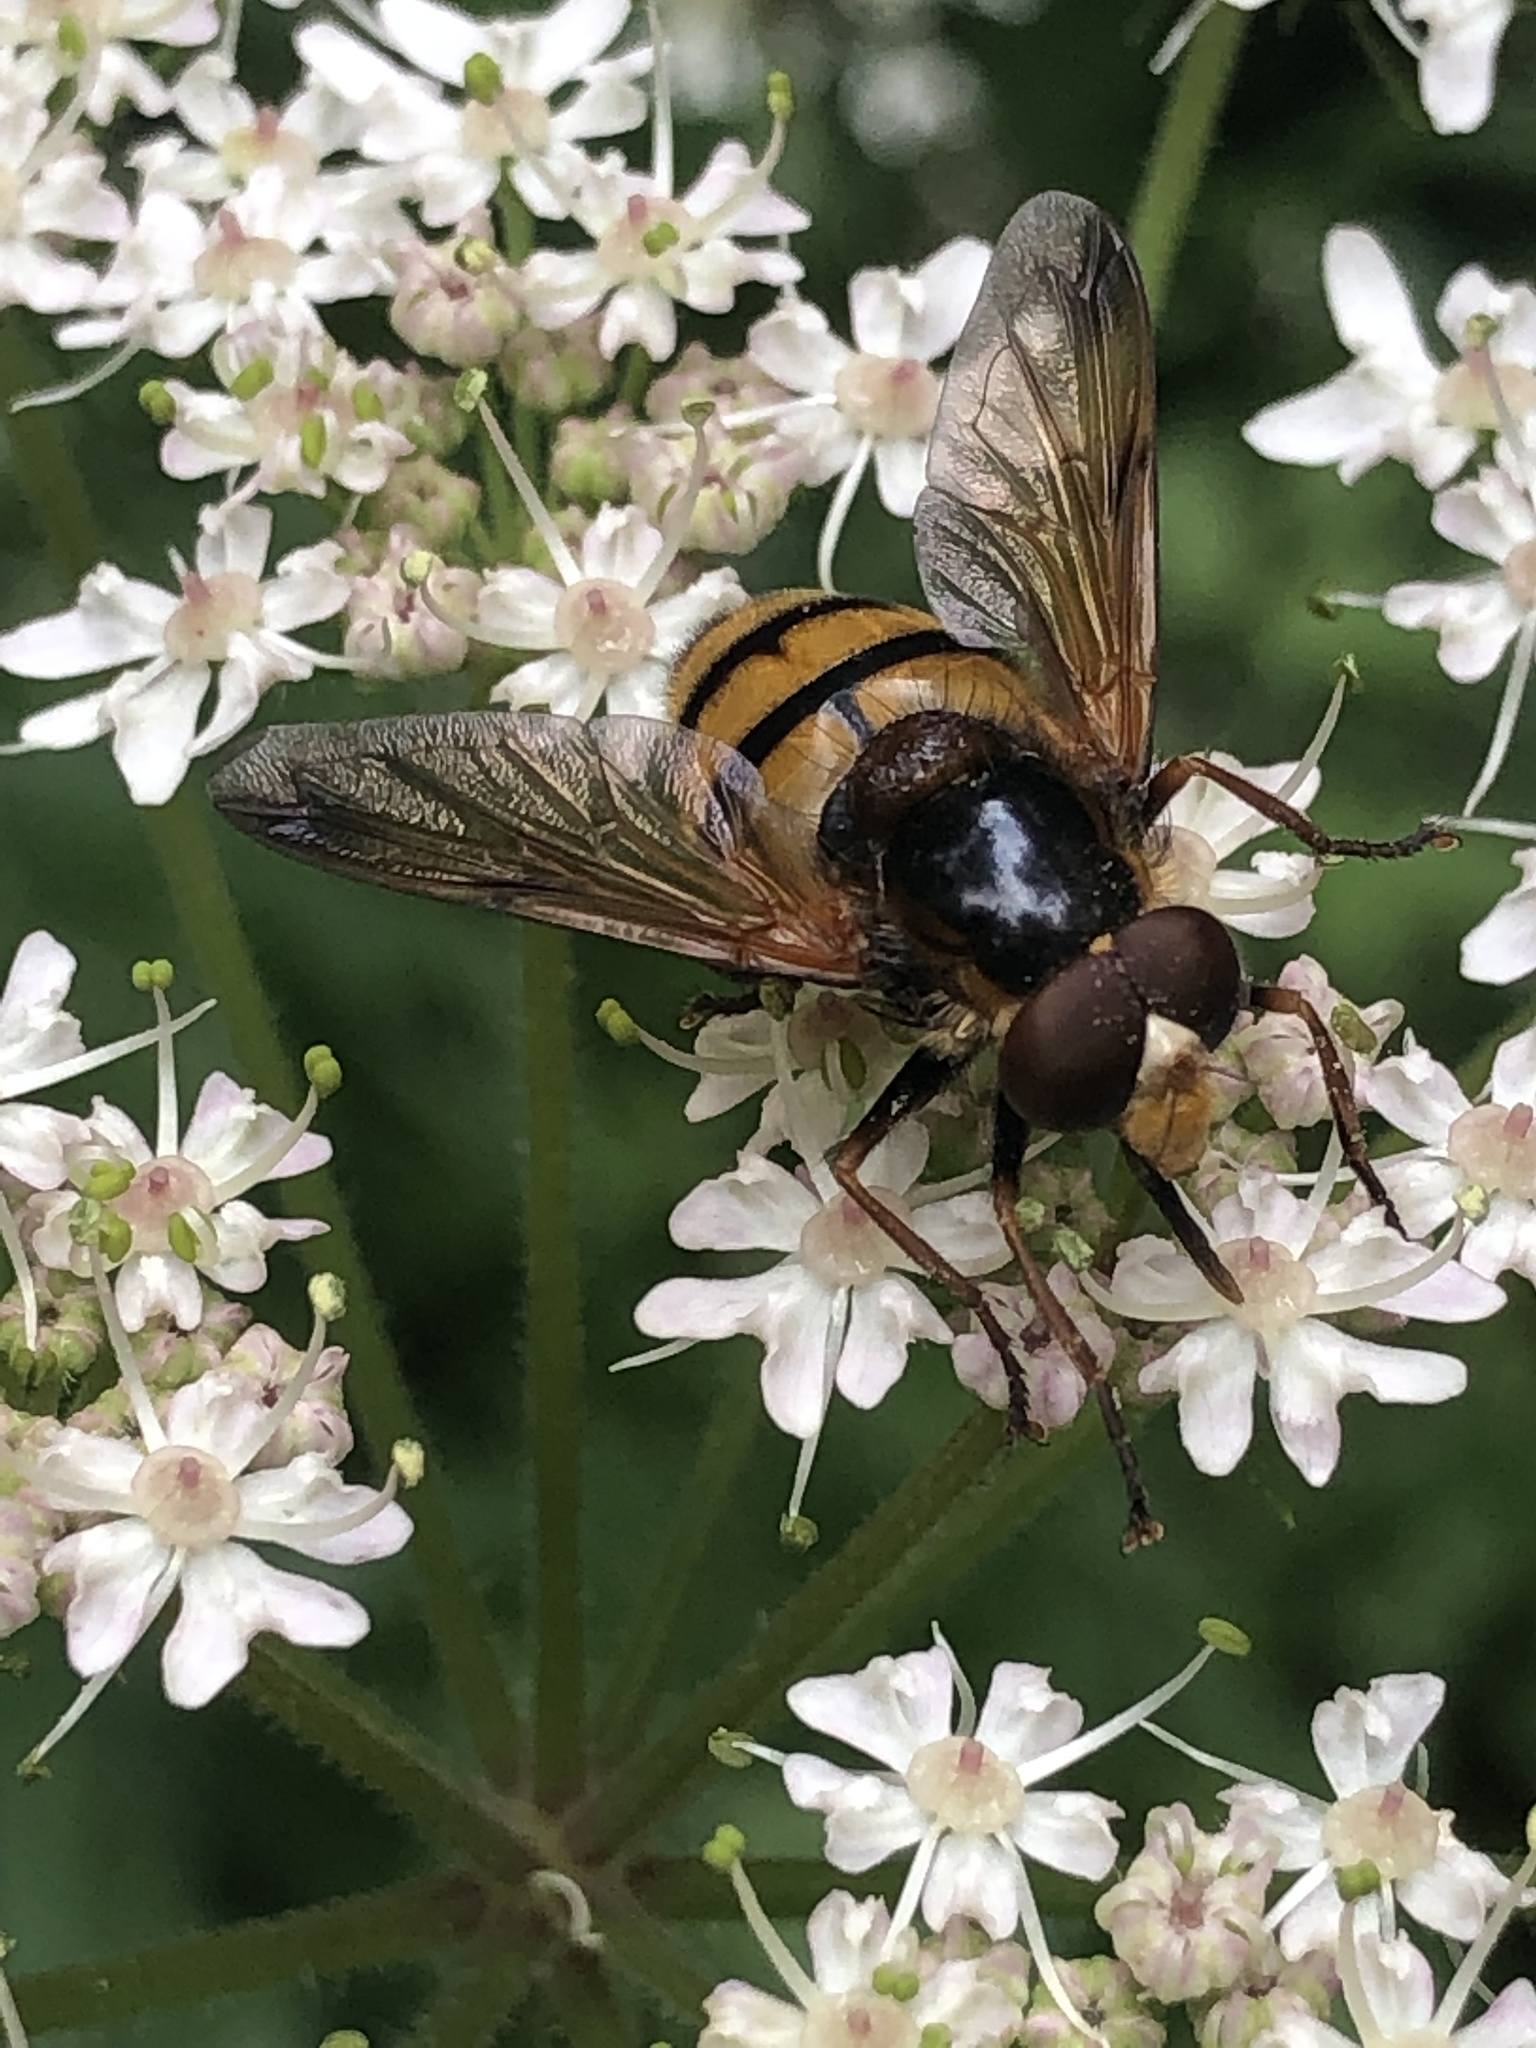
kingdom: Animalia
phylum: Arthropoda
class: Insecta
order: Diptera
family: Syrphidae
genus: Volucella
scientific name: Volucella inanis
